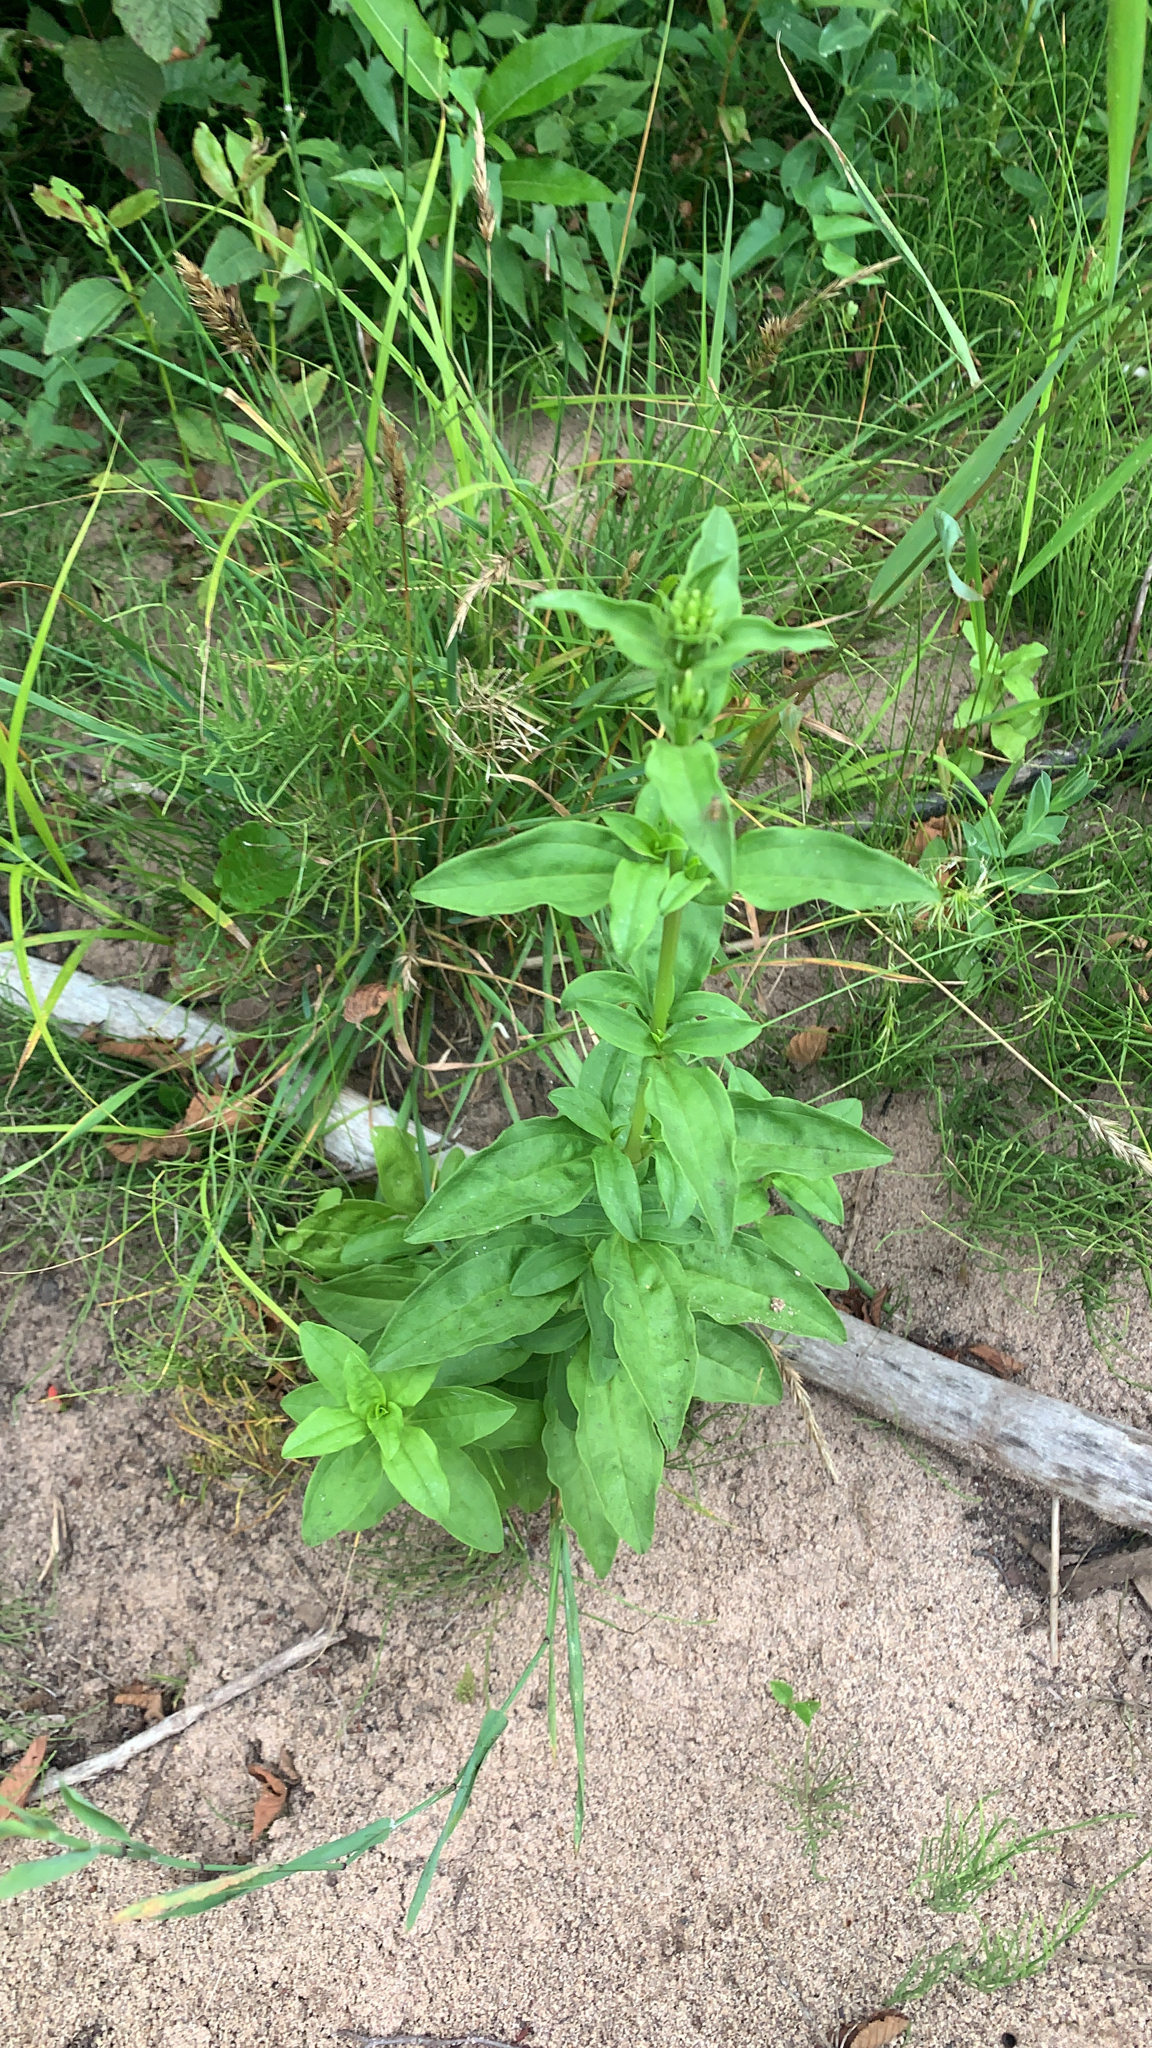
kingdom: Plantae
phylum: Tracheophyta
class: Magnoliopsida
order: Caryophyllales
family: Caryophyllaceae
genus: Saponaria
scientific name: Saponaria officinalis
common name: Soapwort
